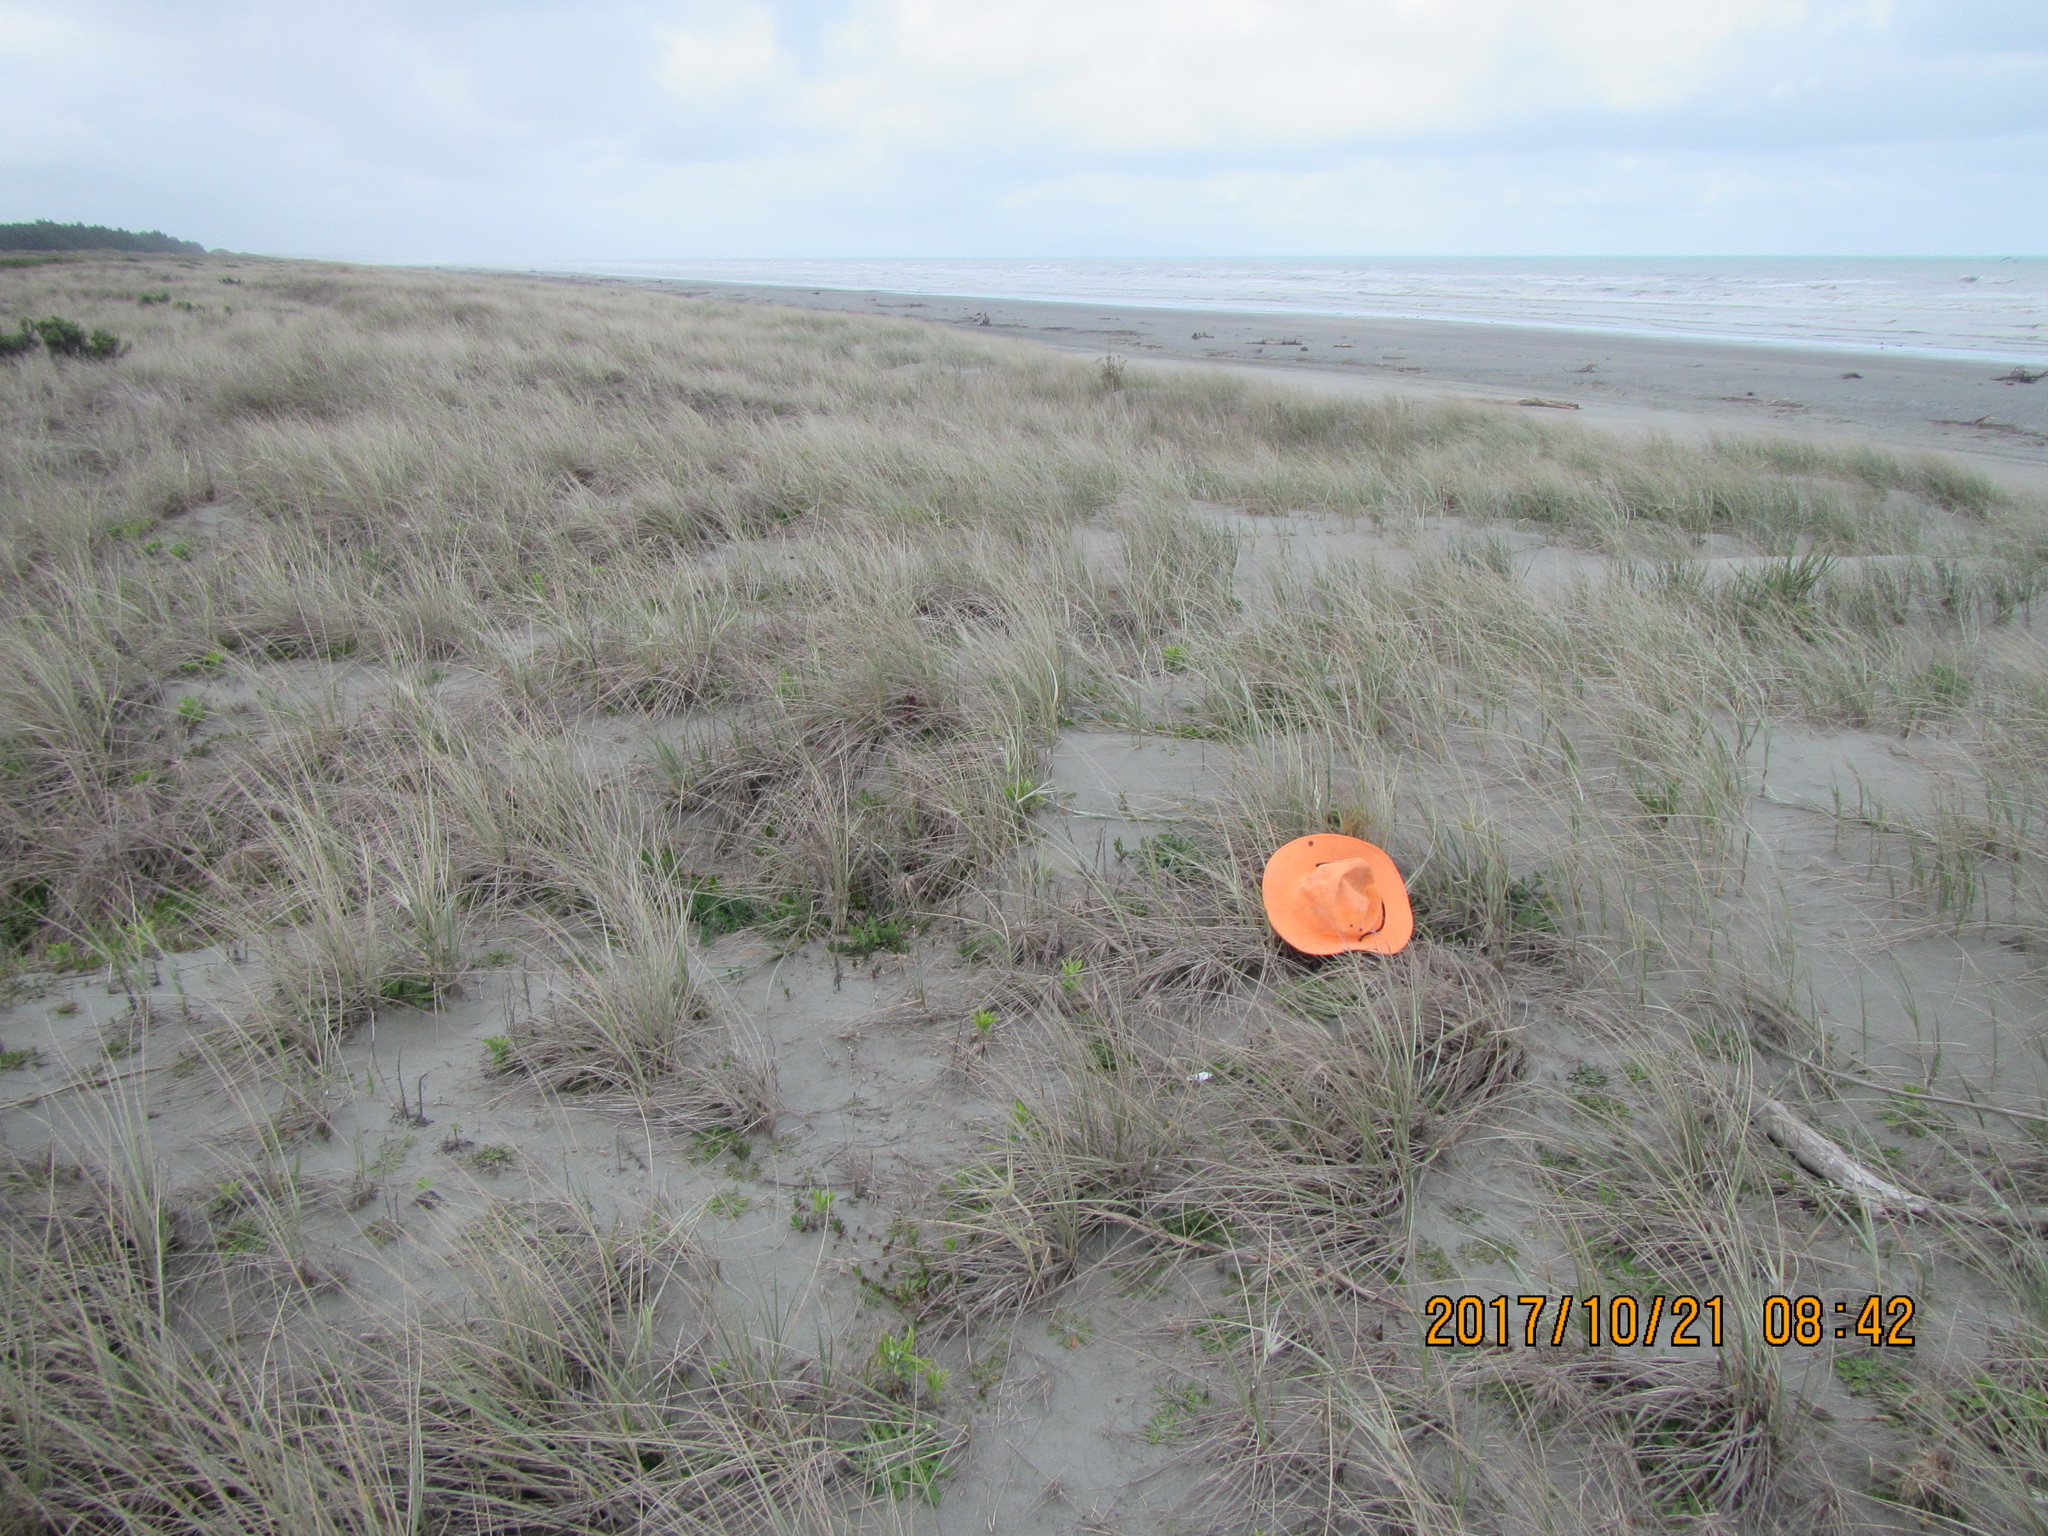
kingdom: Animalia
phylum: Arthropoda
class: Arachnida
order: Araneae
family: Theridiidae
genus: Steatoda
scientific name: Steatoda capensis
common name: Cobweb weaver
